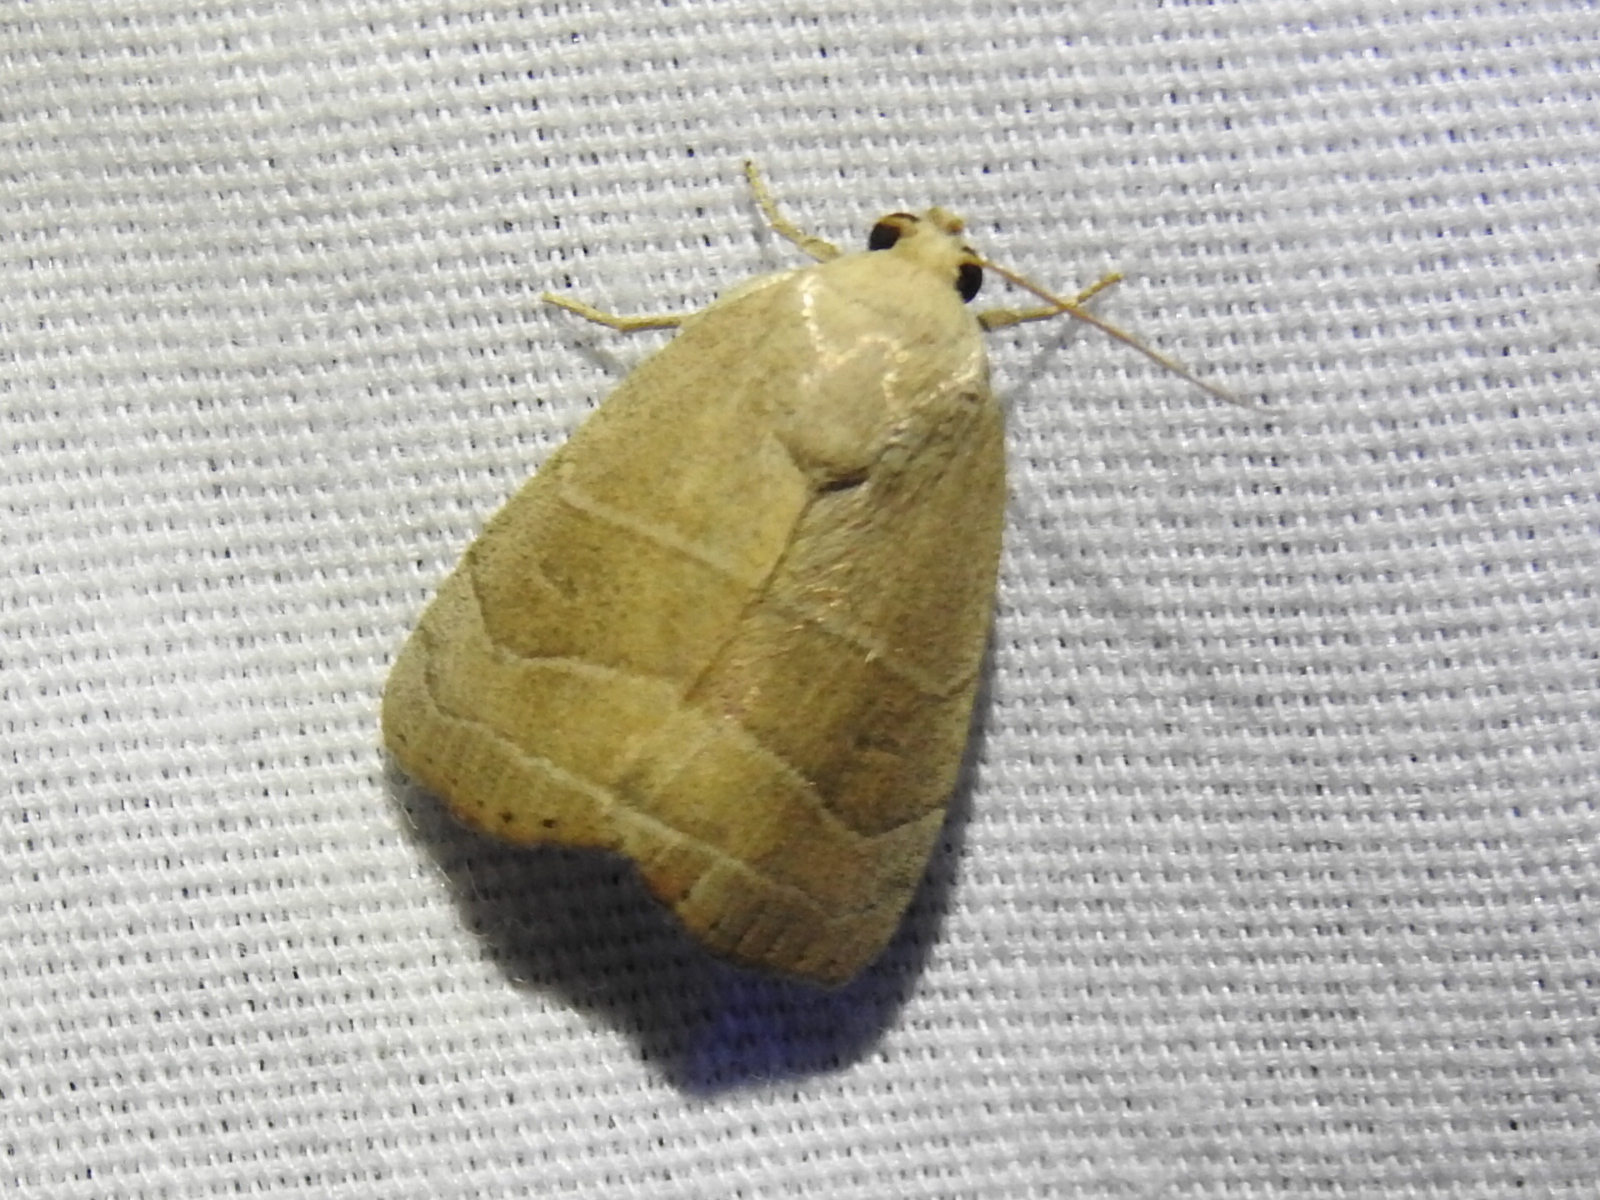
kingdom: Animalia
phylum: Arthropoda
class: Insecta
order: Lepidoptera
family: Noctuidae
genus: Bagisara
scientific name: Bagisara rectifascia
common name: Straight lined mallow moth
